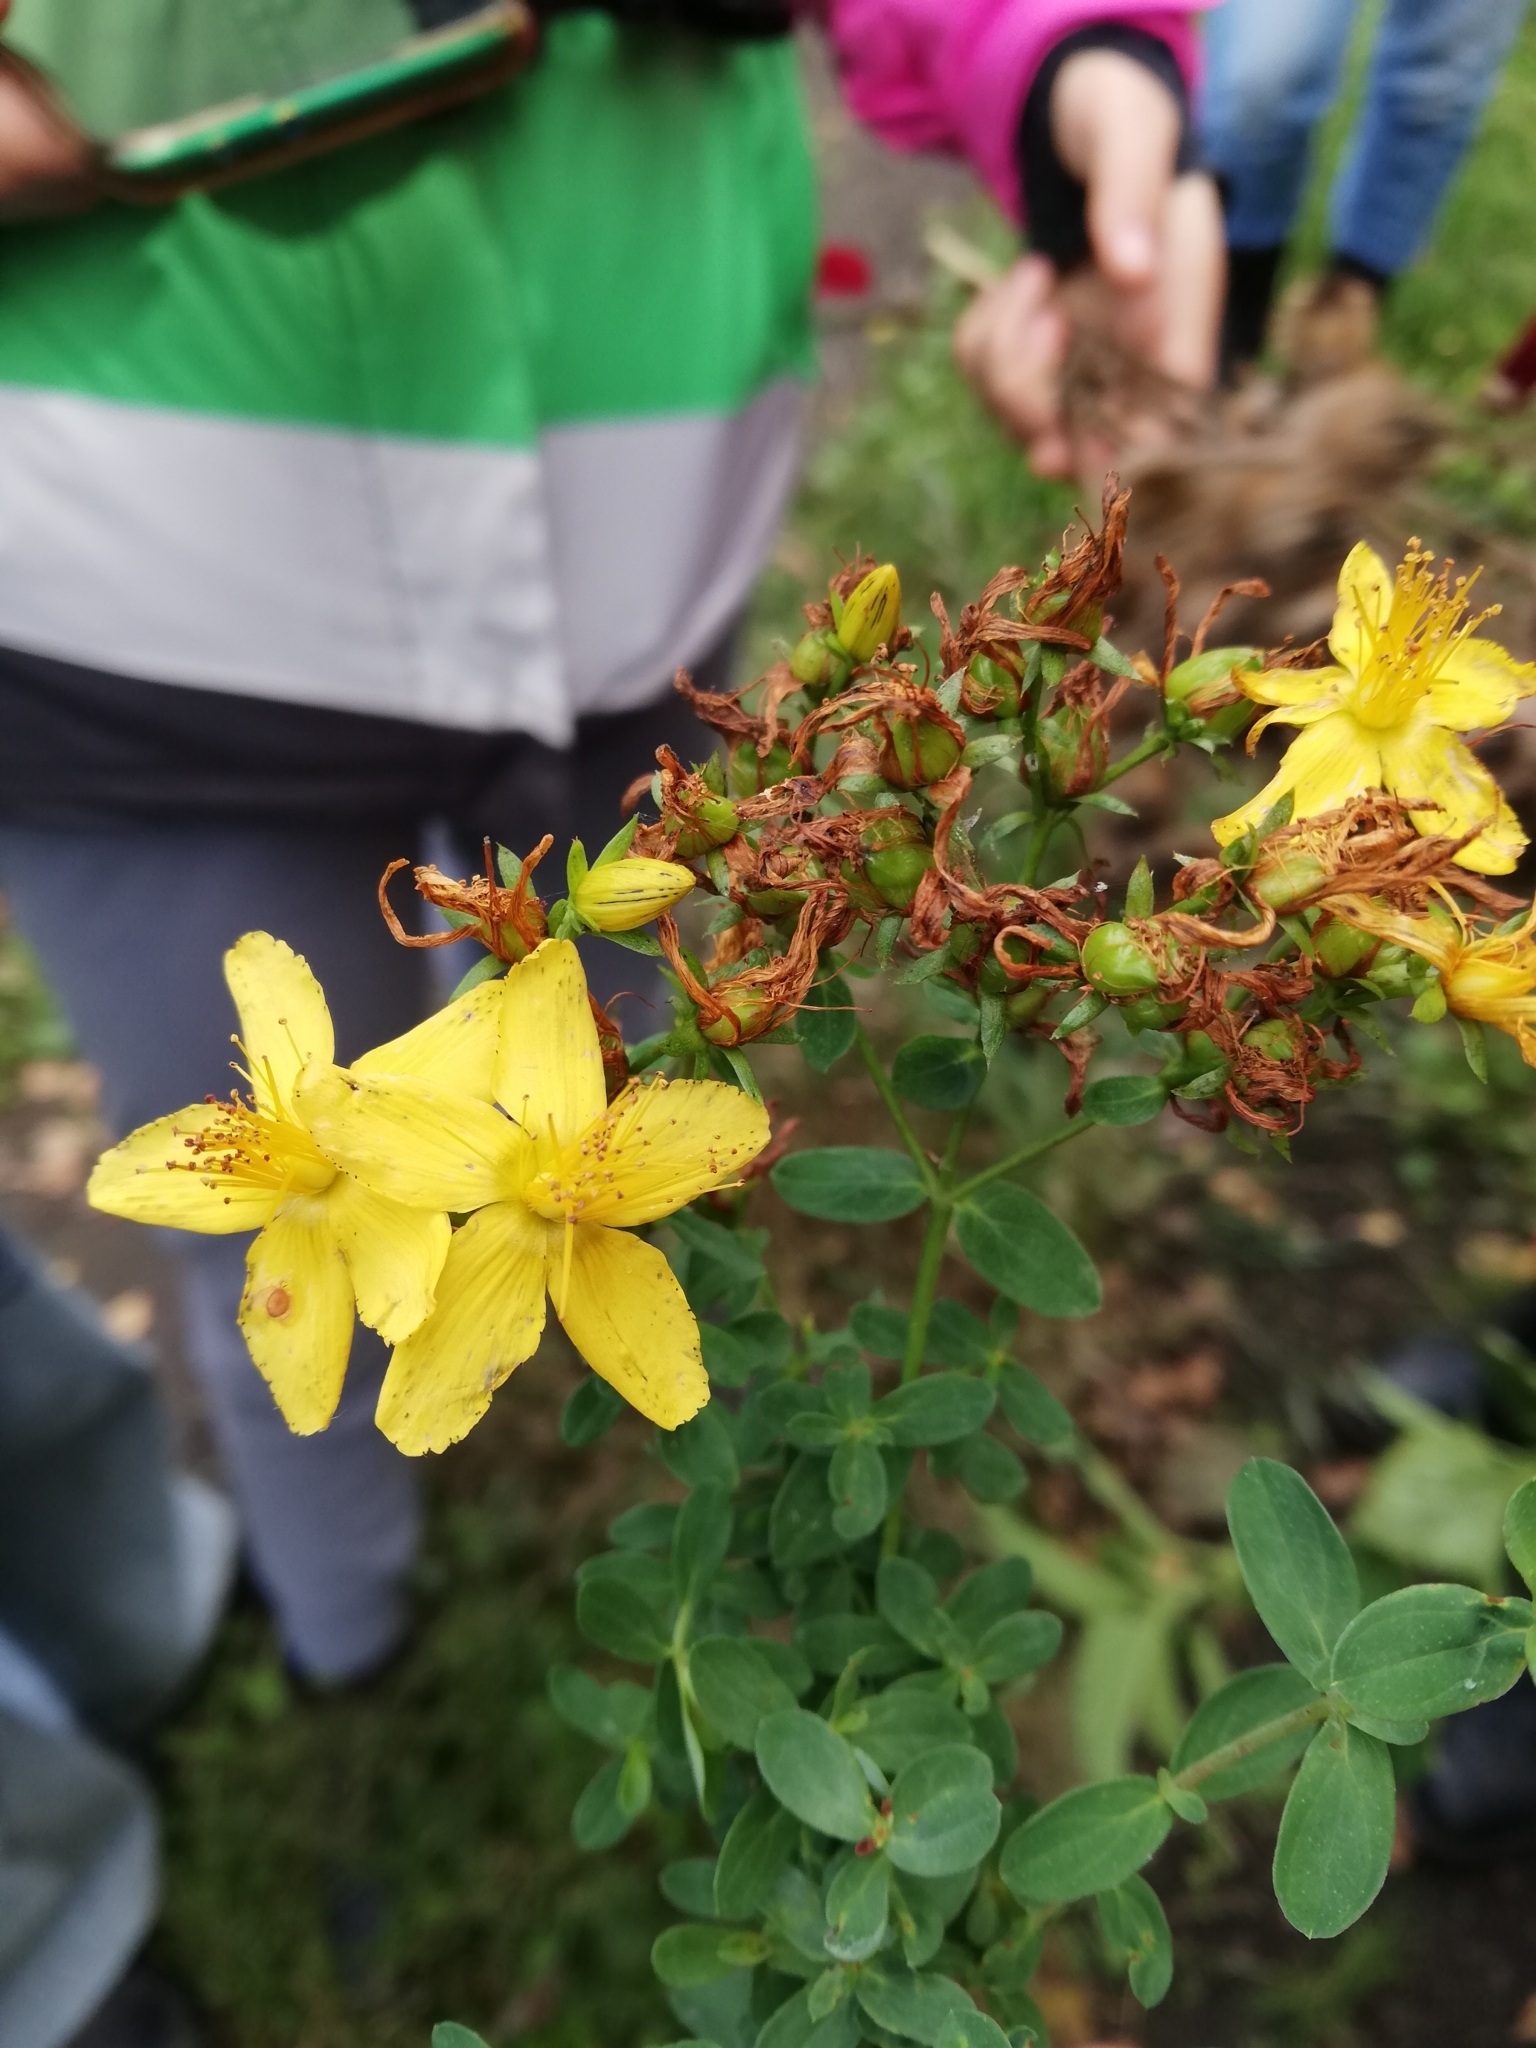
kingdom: Plantae
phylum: Tracheophyta
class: Magnoliopsida
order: Malpighiales
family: Hypericaceae
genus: Hypericum
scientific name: Hypericum perforatum
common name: Common st. johnswort
